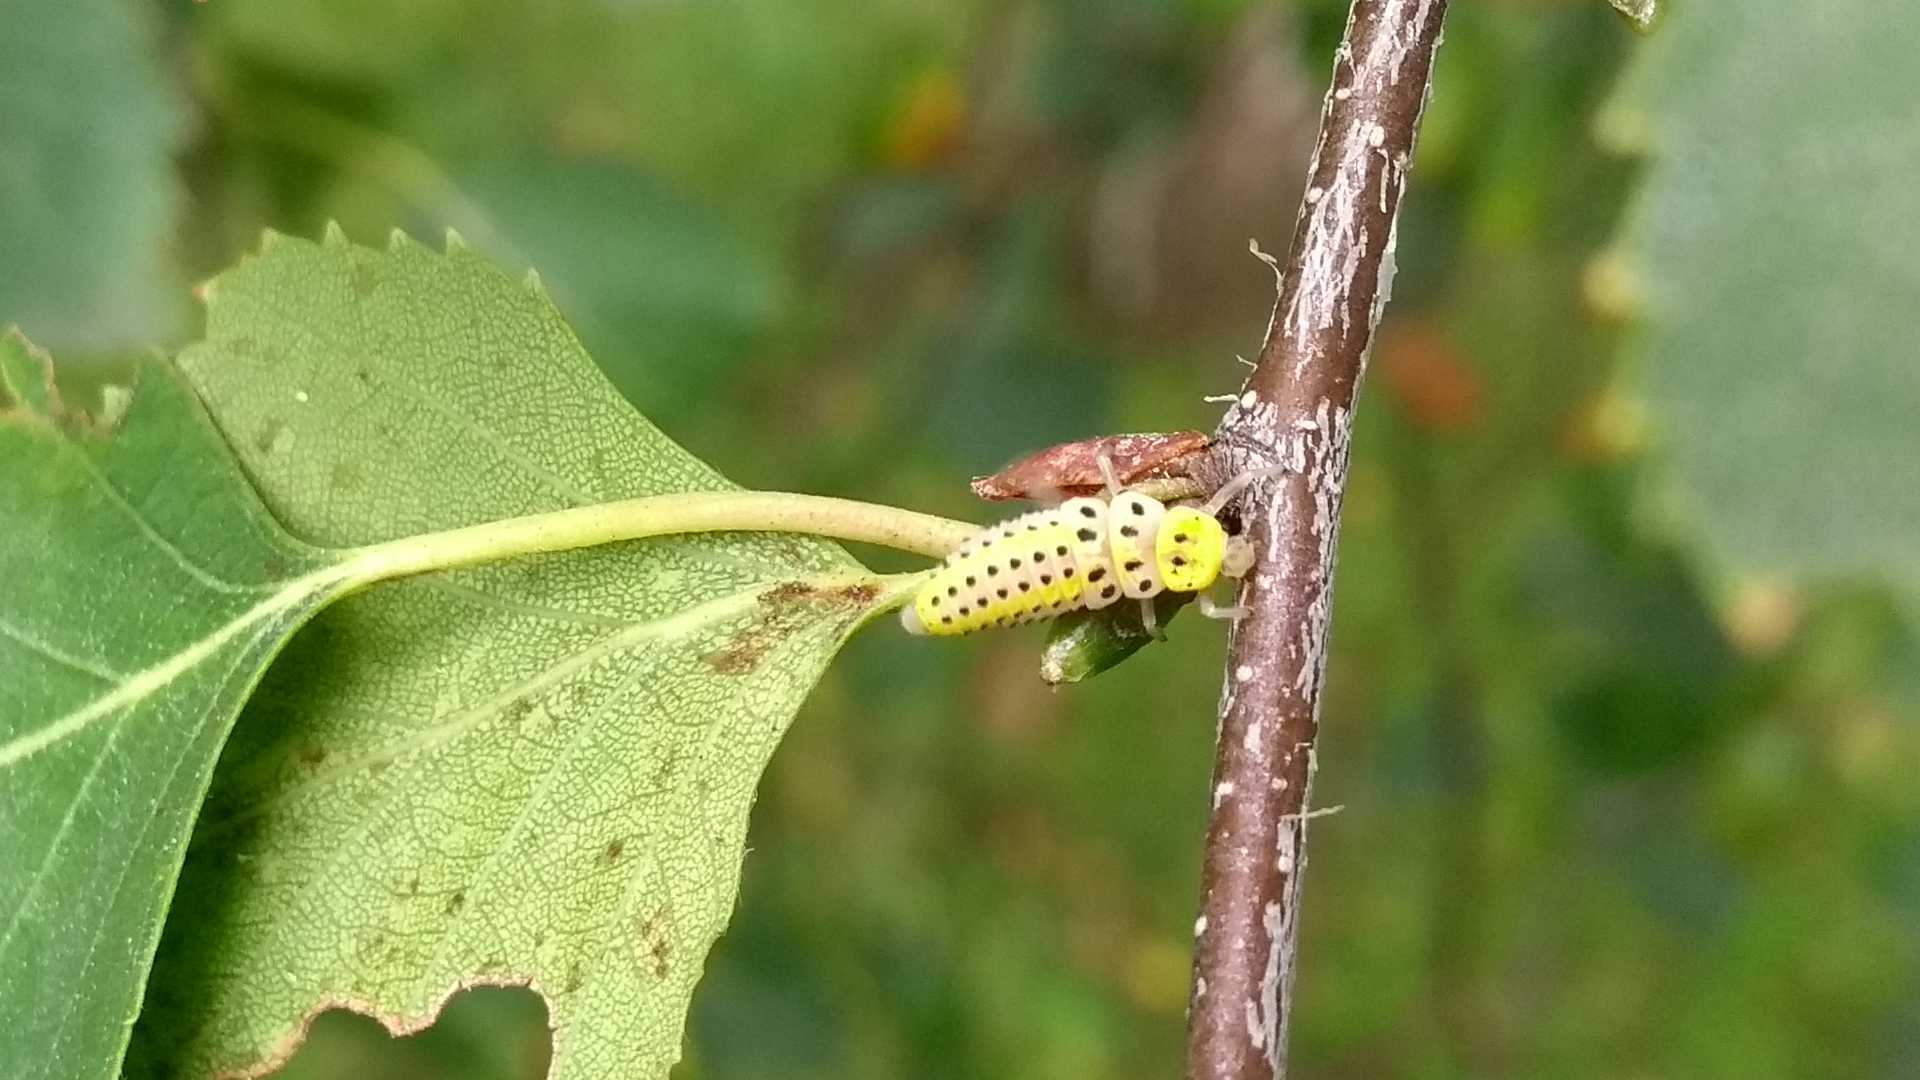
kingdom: Animalia
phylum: Arthropoda
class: Insecta
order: Coleoptera
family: Coccinellidae
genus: Halyzia
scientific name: Halyzia sedecimguttata
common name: Orange ladybird
